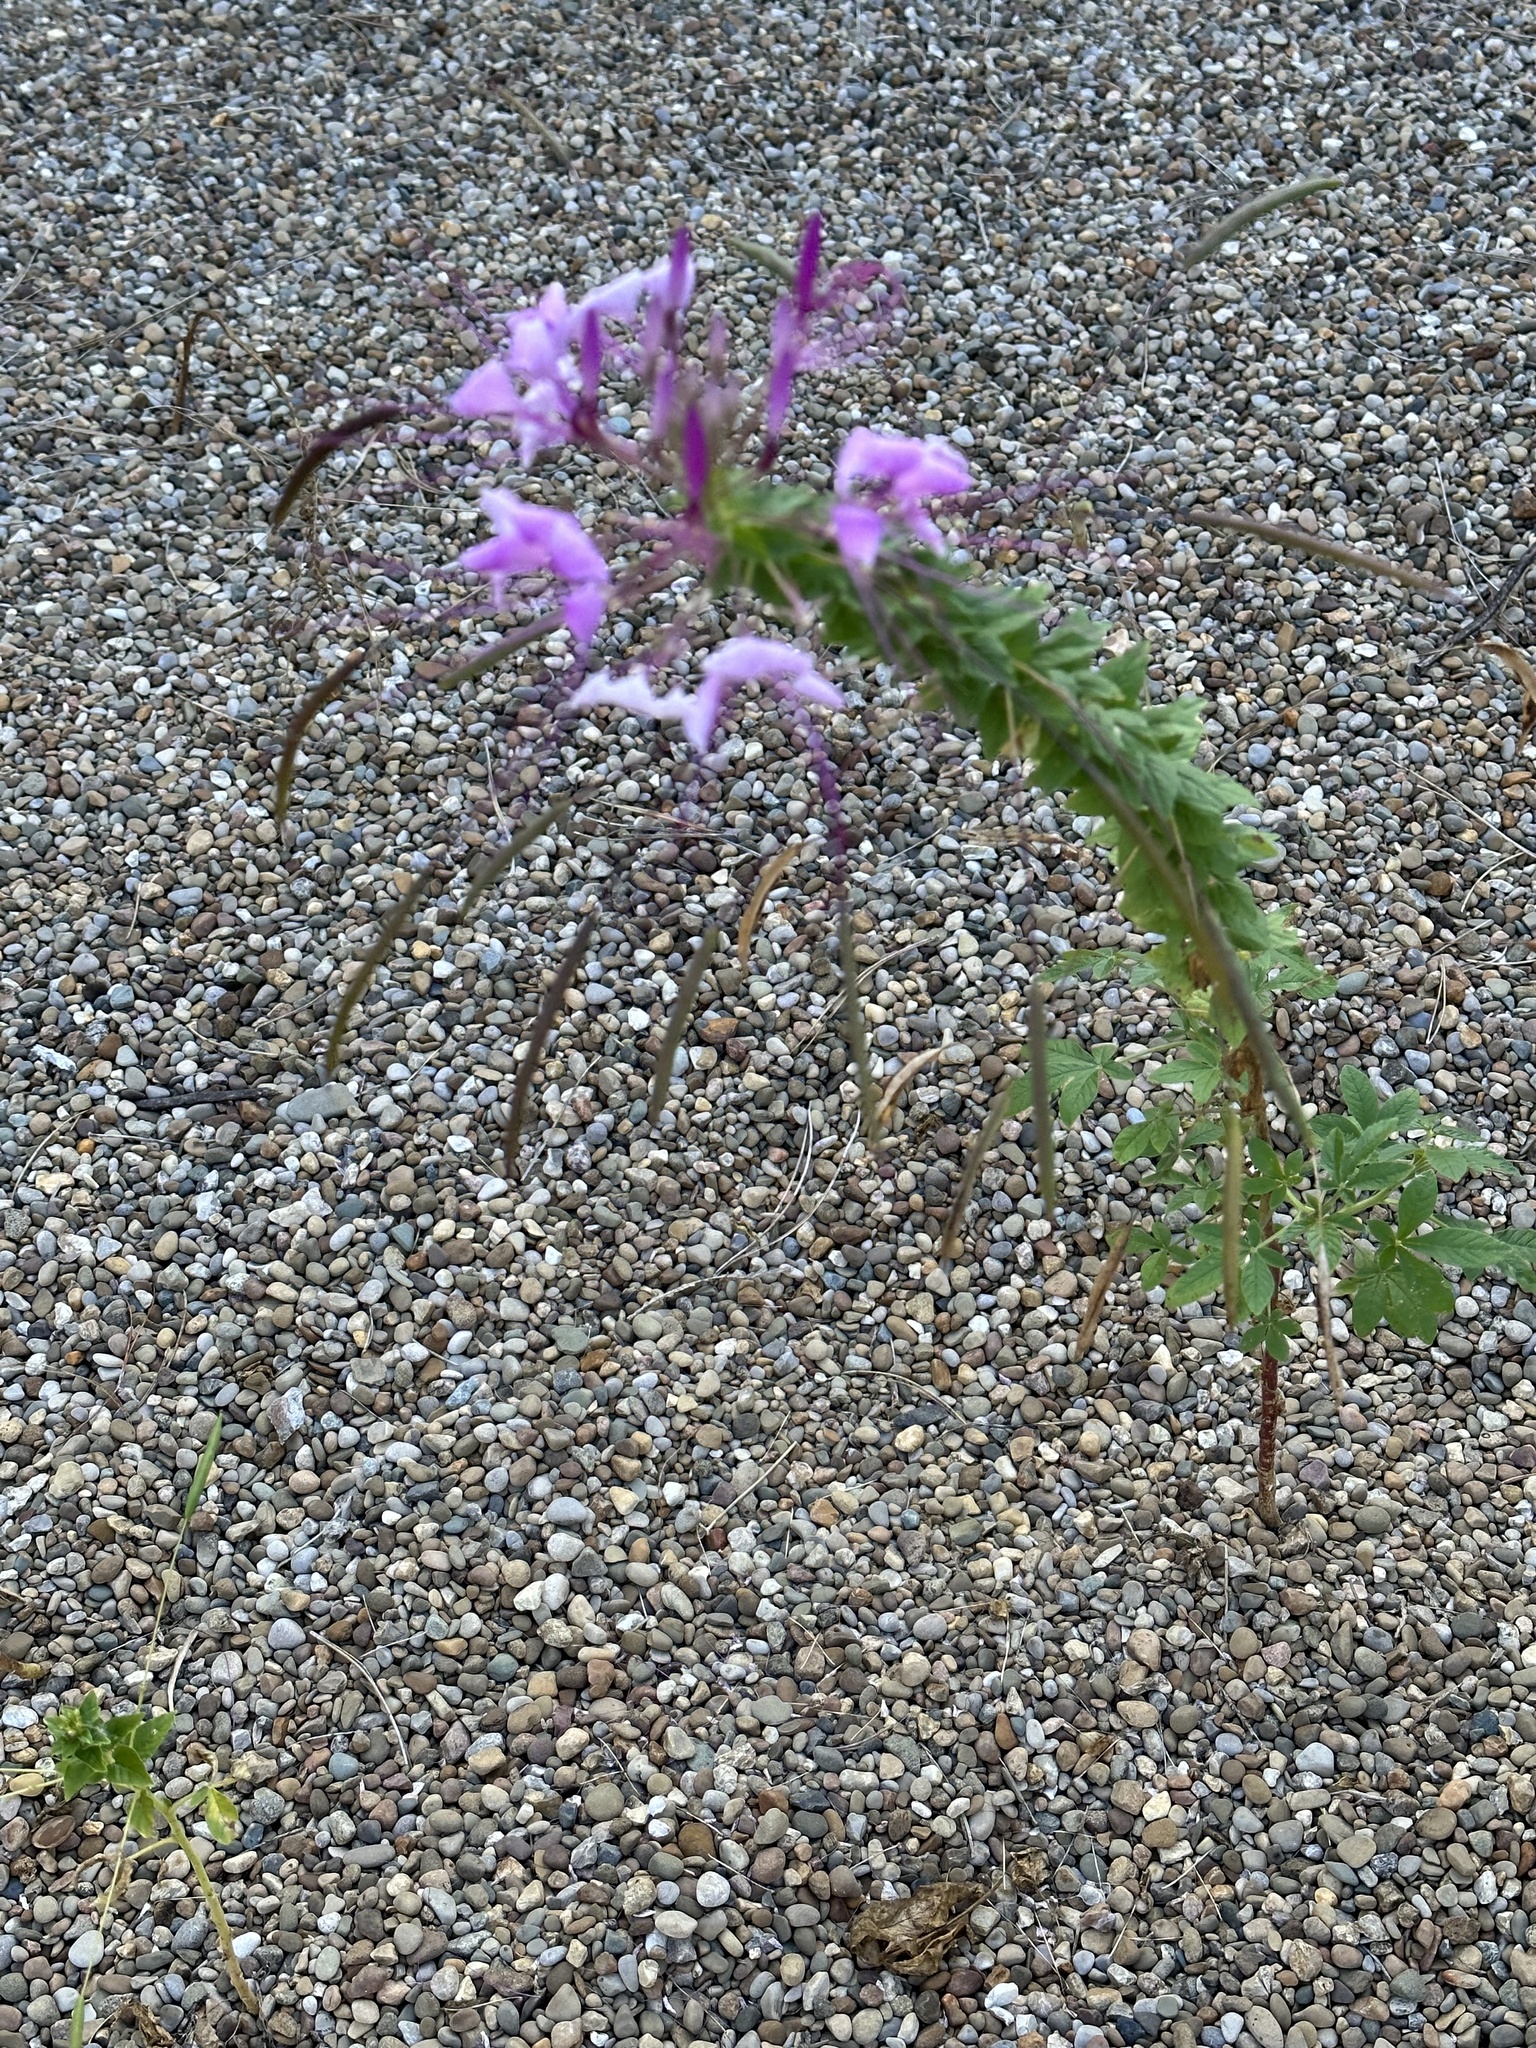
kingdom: Plantae
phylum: Tracheophyta
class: Magnoliopsida
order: Brassicales
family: Cleomaceae
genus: Tarenaya
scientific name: Tarenaya houtteana
